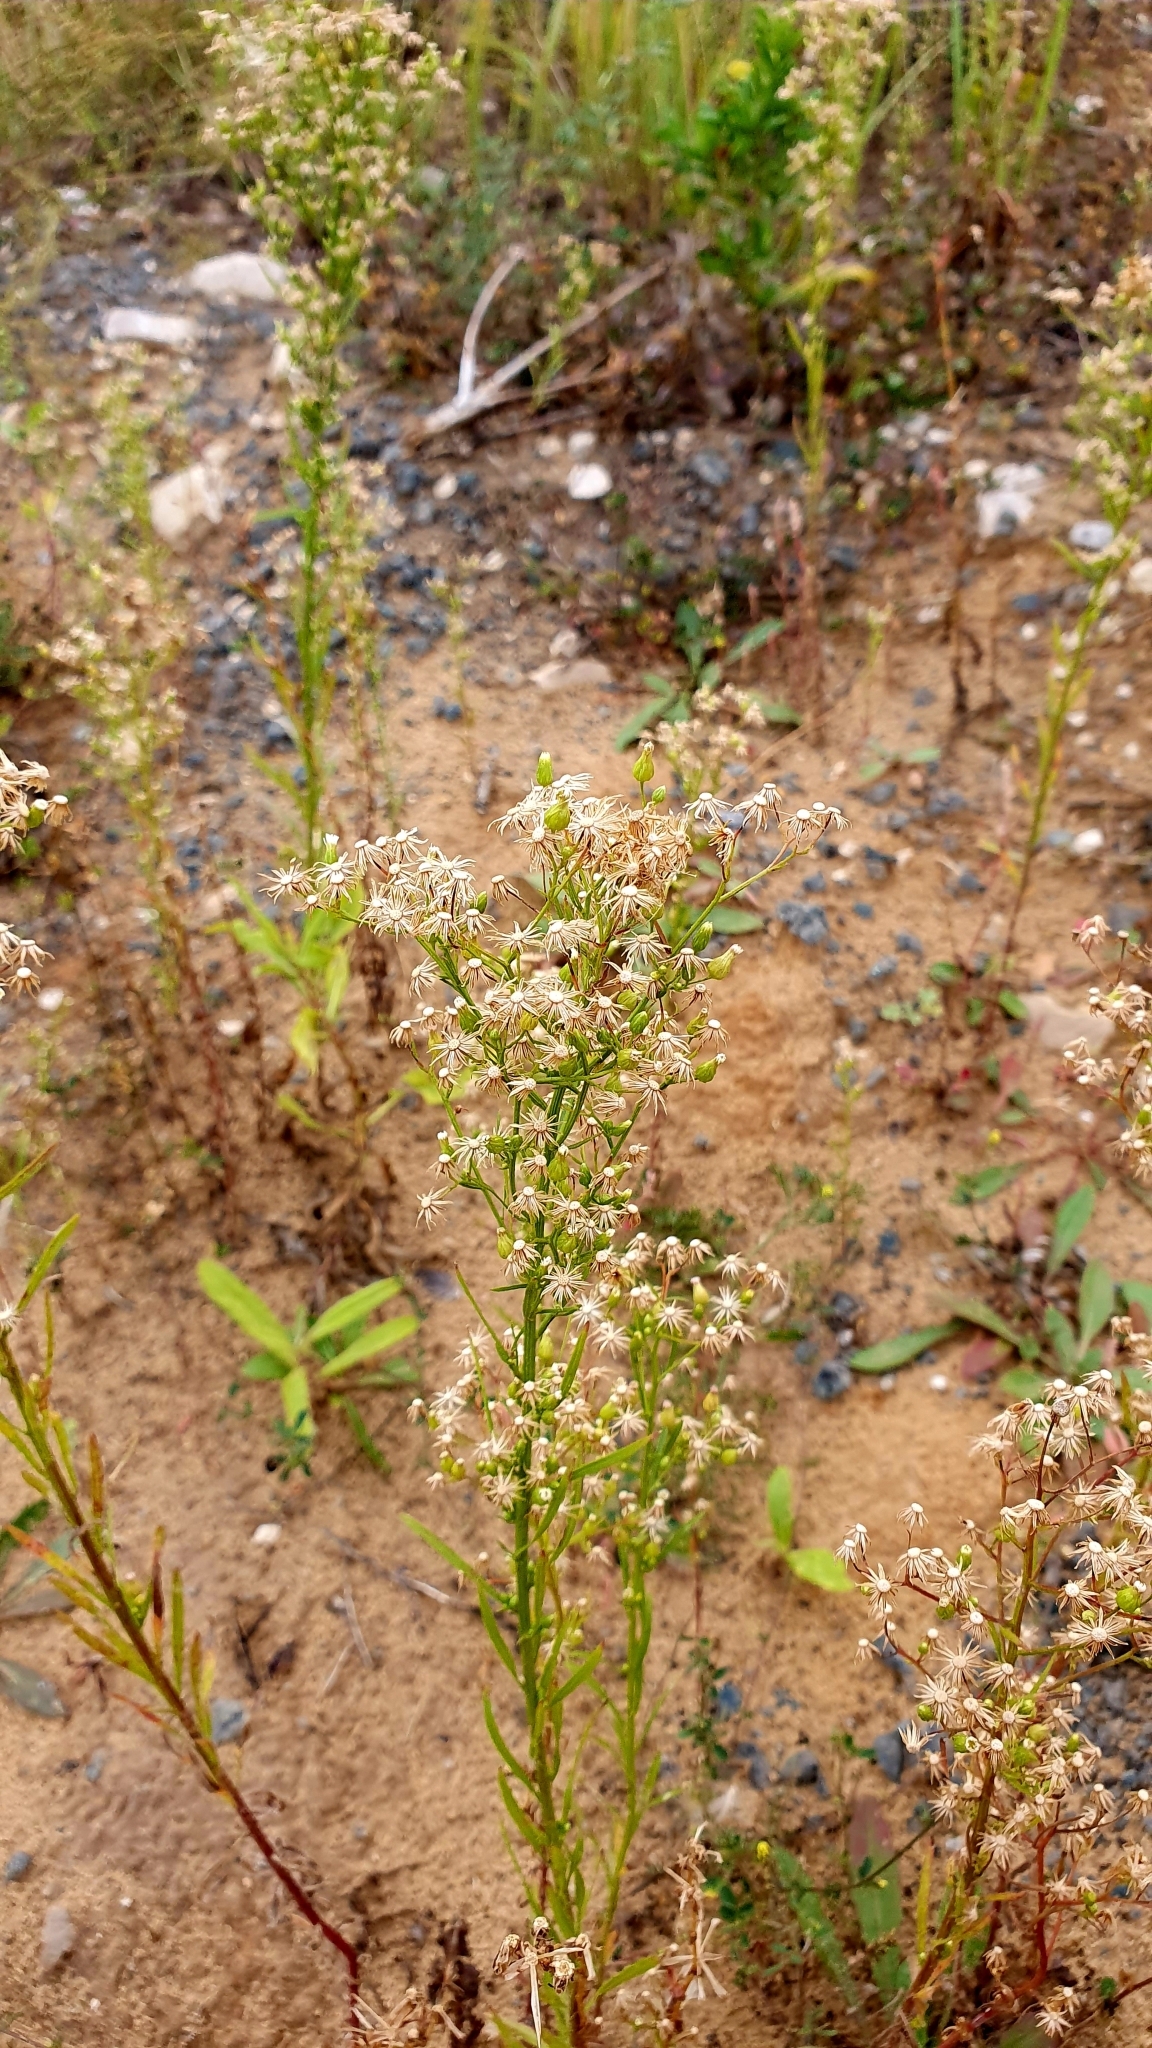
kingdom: Plantae
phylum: Tracheophyta
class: Magnoliopsida
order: Asterales
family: Asteraceae
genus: Erigeron
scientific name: Erigeron canadensis
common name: Canadian fleabane
